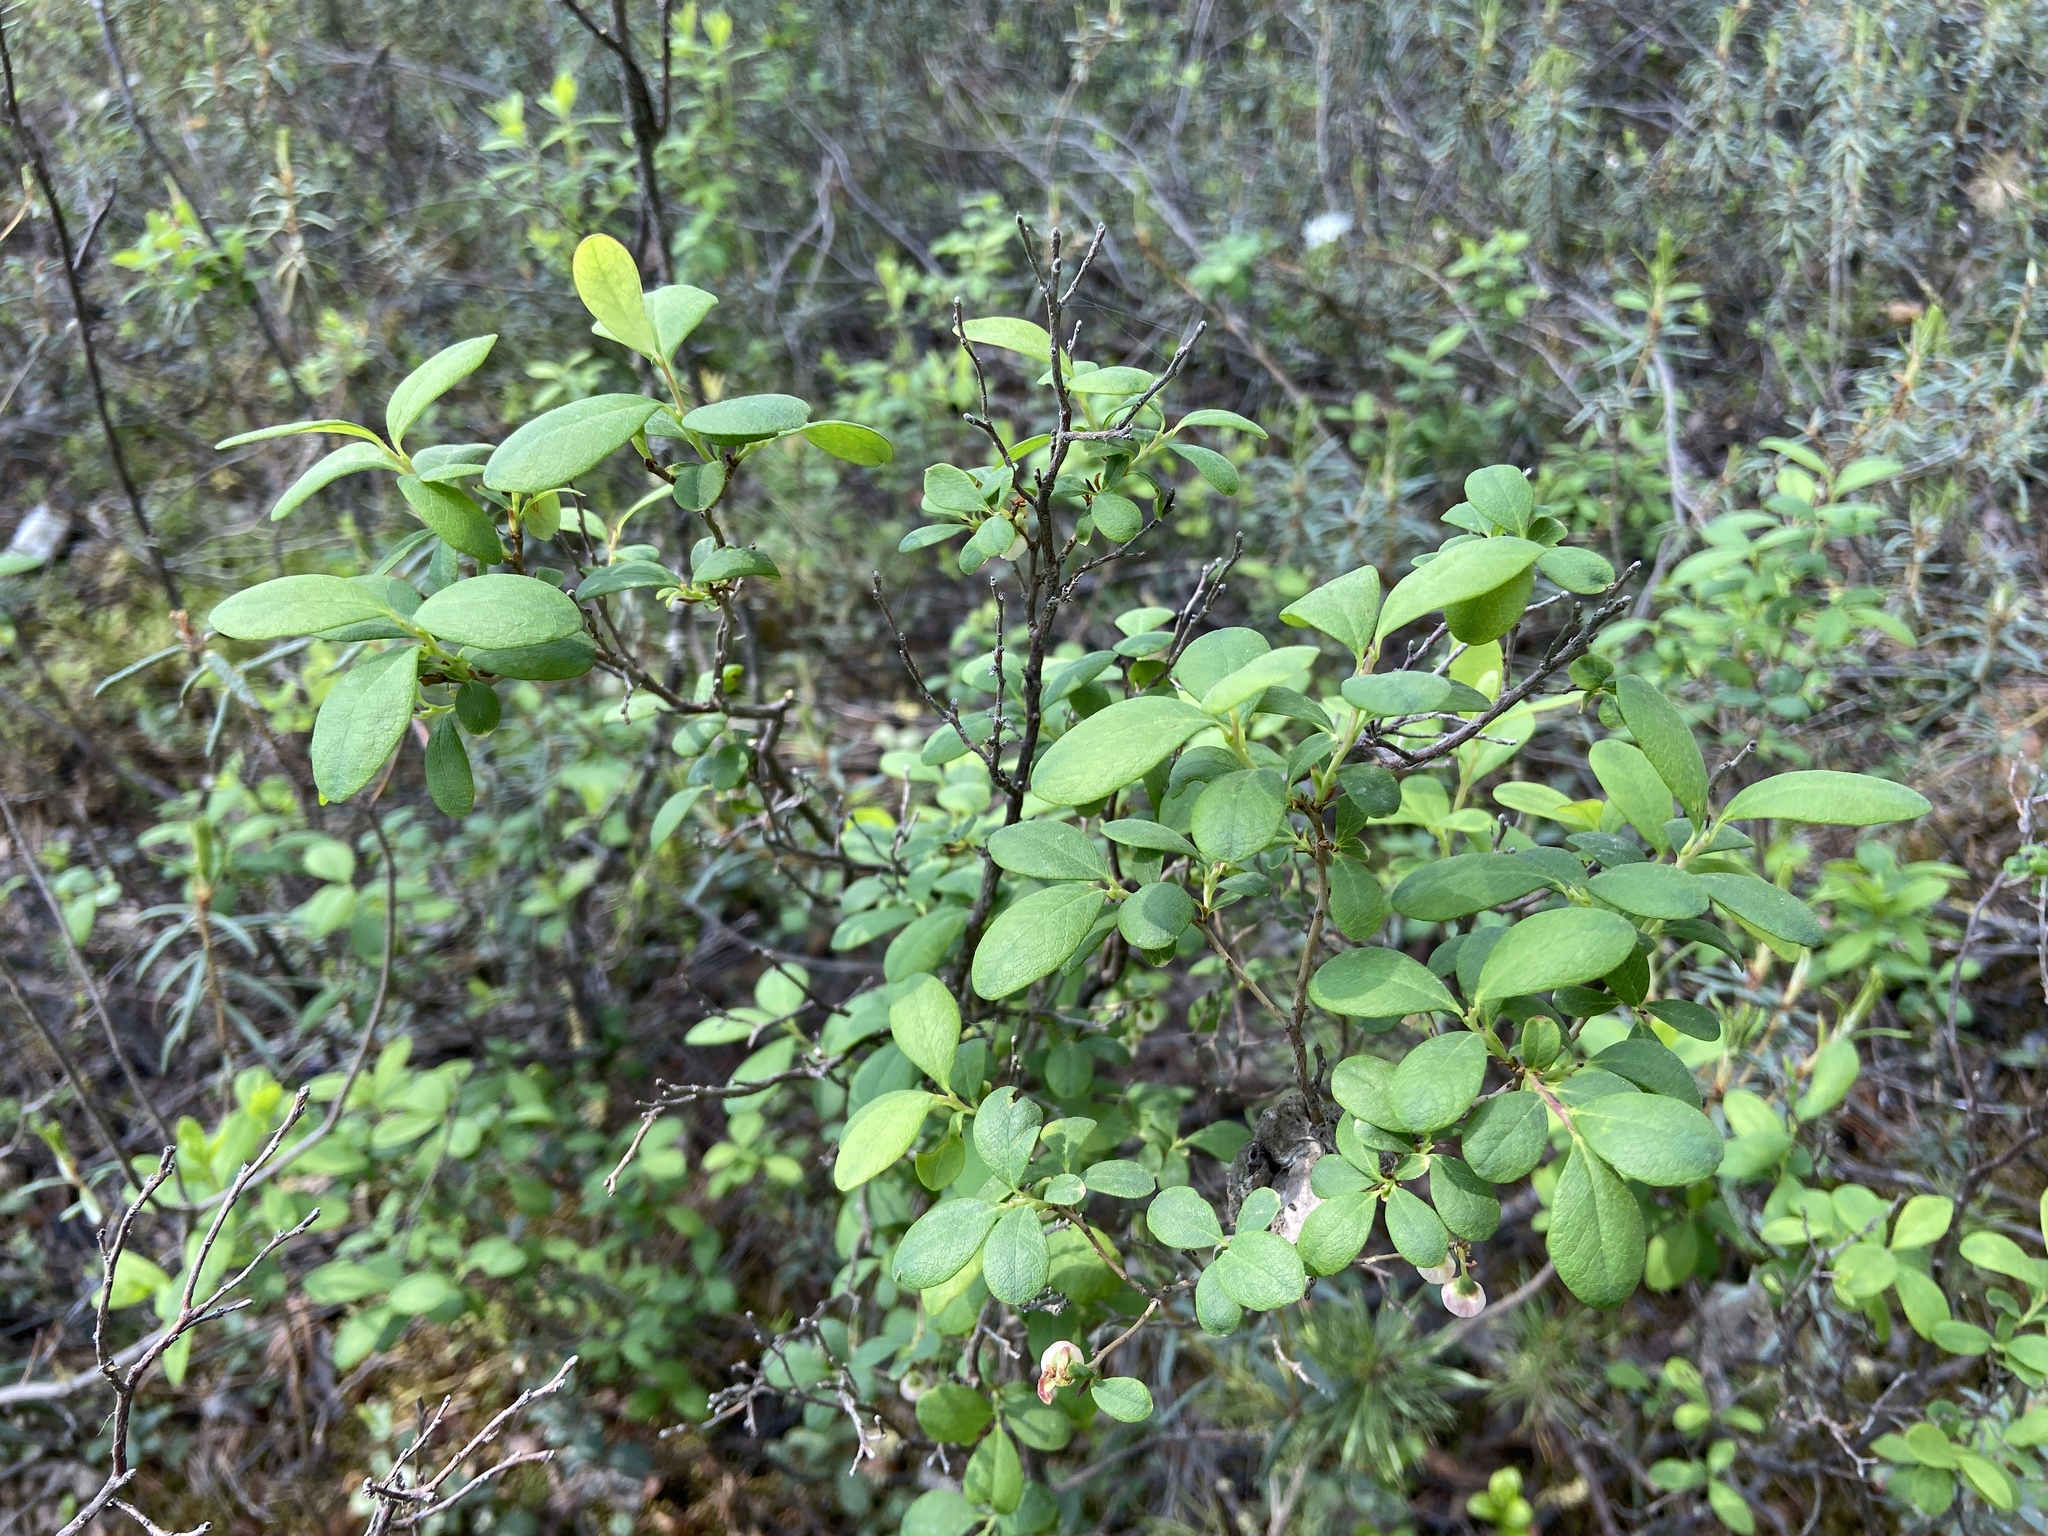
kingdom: Plantae
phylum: Tracheophyta
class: Magnoliopsida
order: Ericales
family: Ericaceae
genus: Vaccinium
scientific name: Vaccinium uliginosum
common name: Bog bilberry
